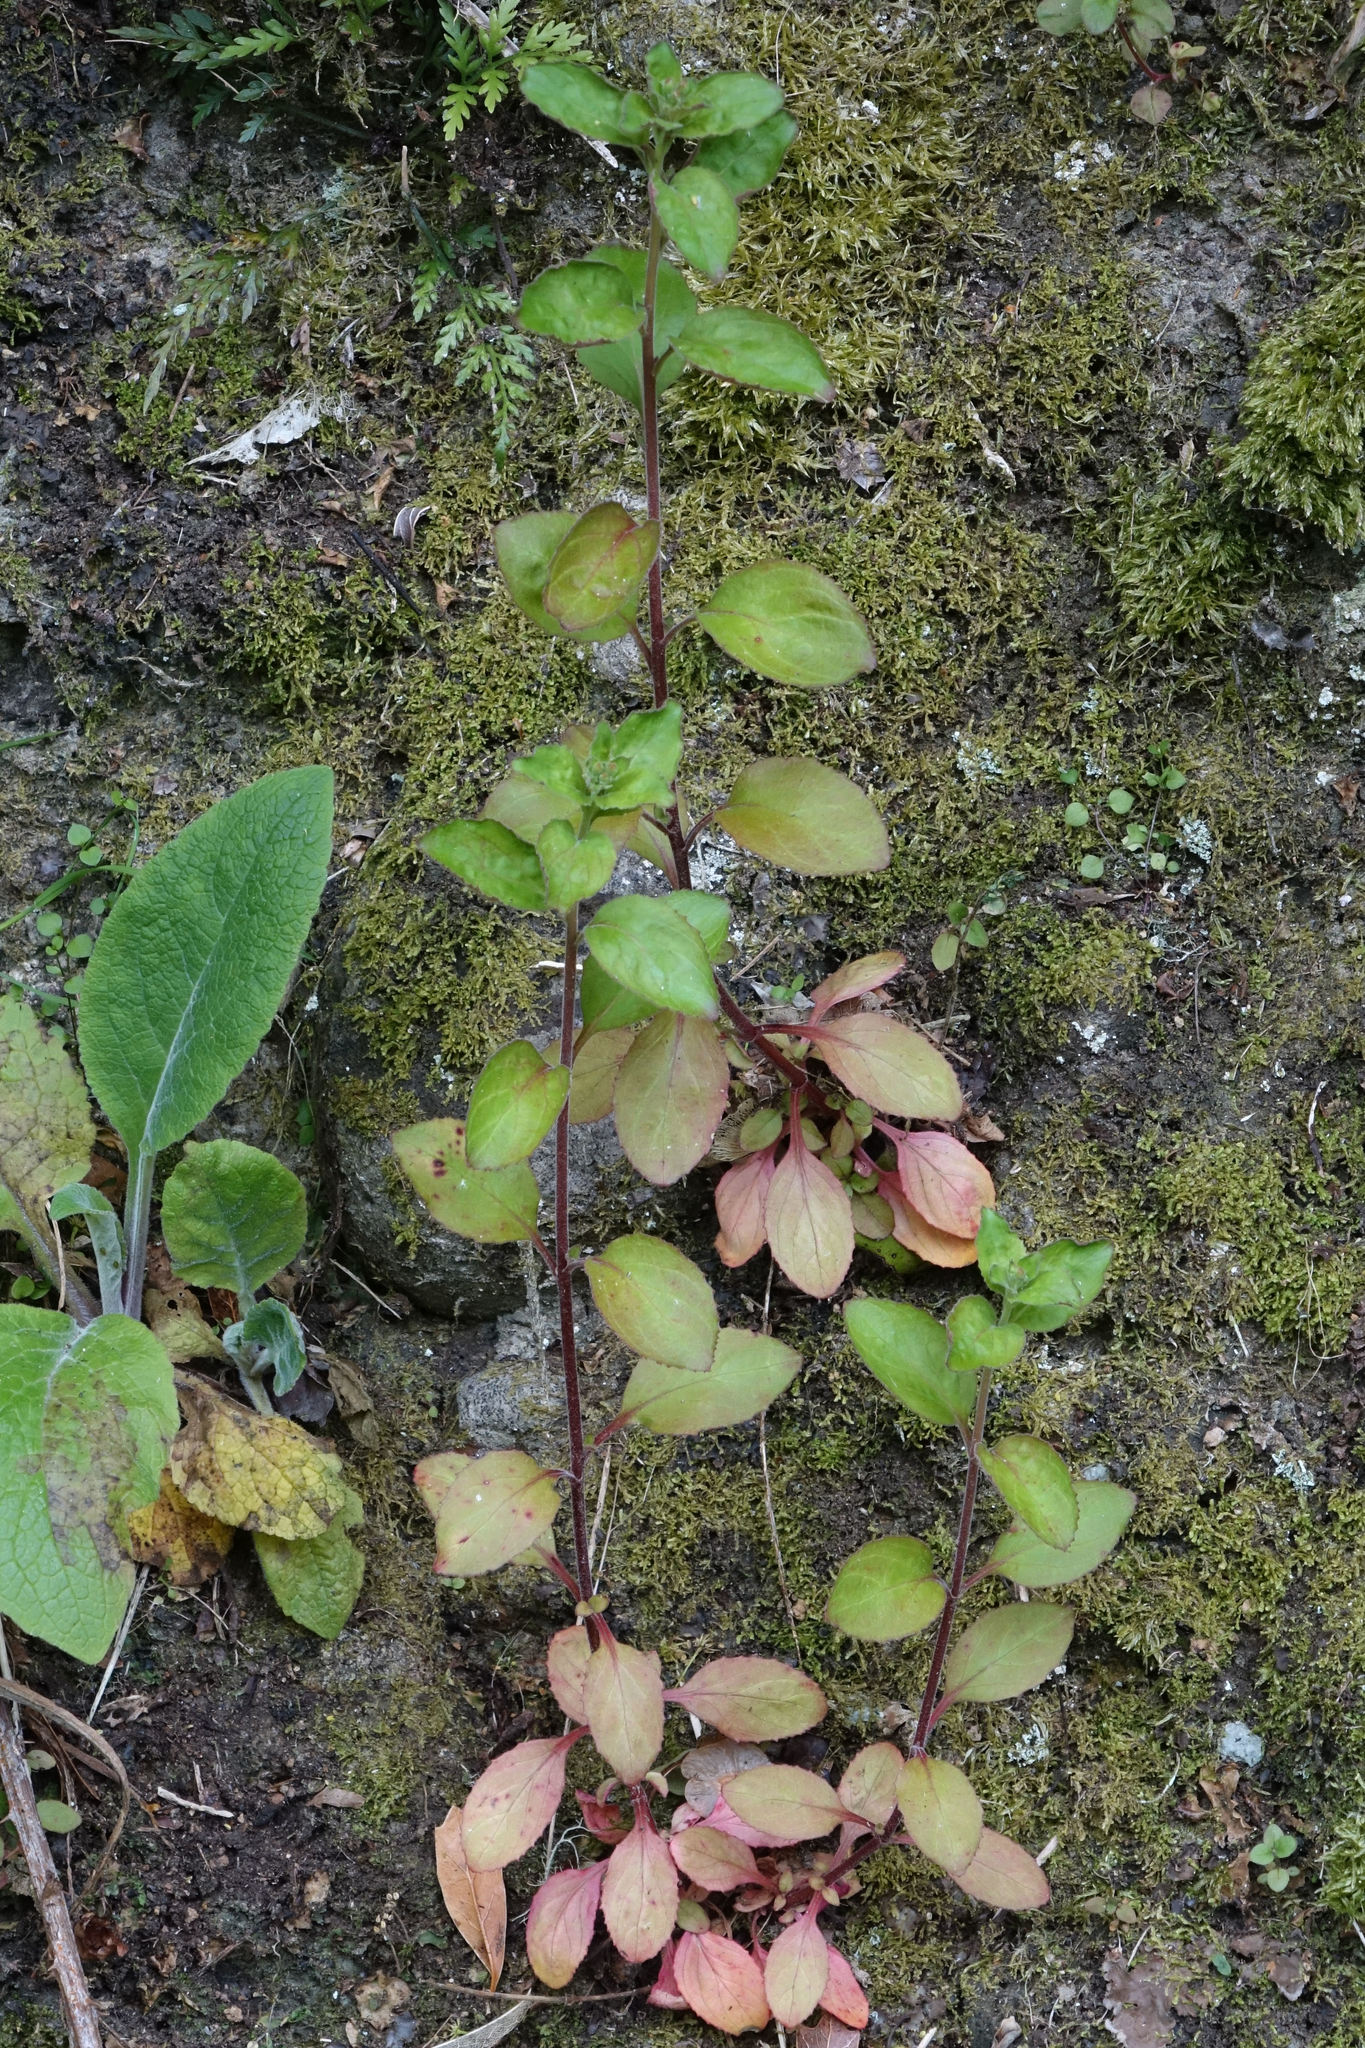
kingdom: Plantae
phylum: Tracheophyta
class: Magnoliopsida
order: Myrtales
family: Onagraceae
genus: Epilobium
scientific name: Epilobium pubens
